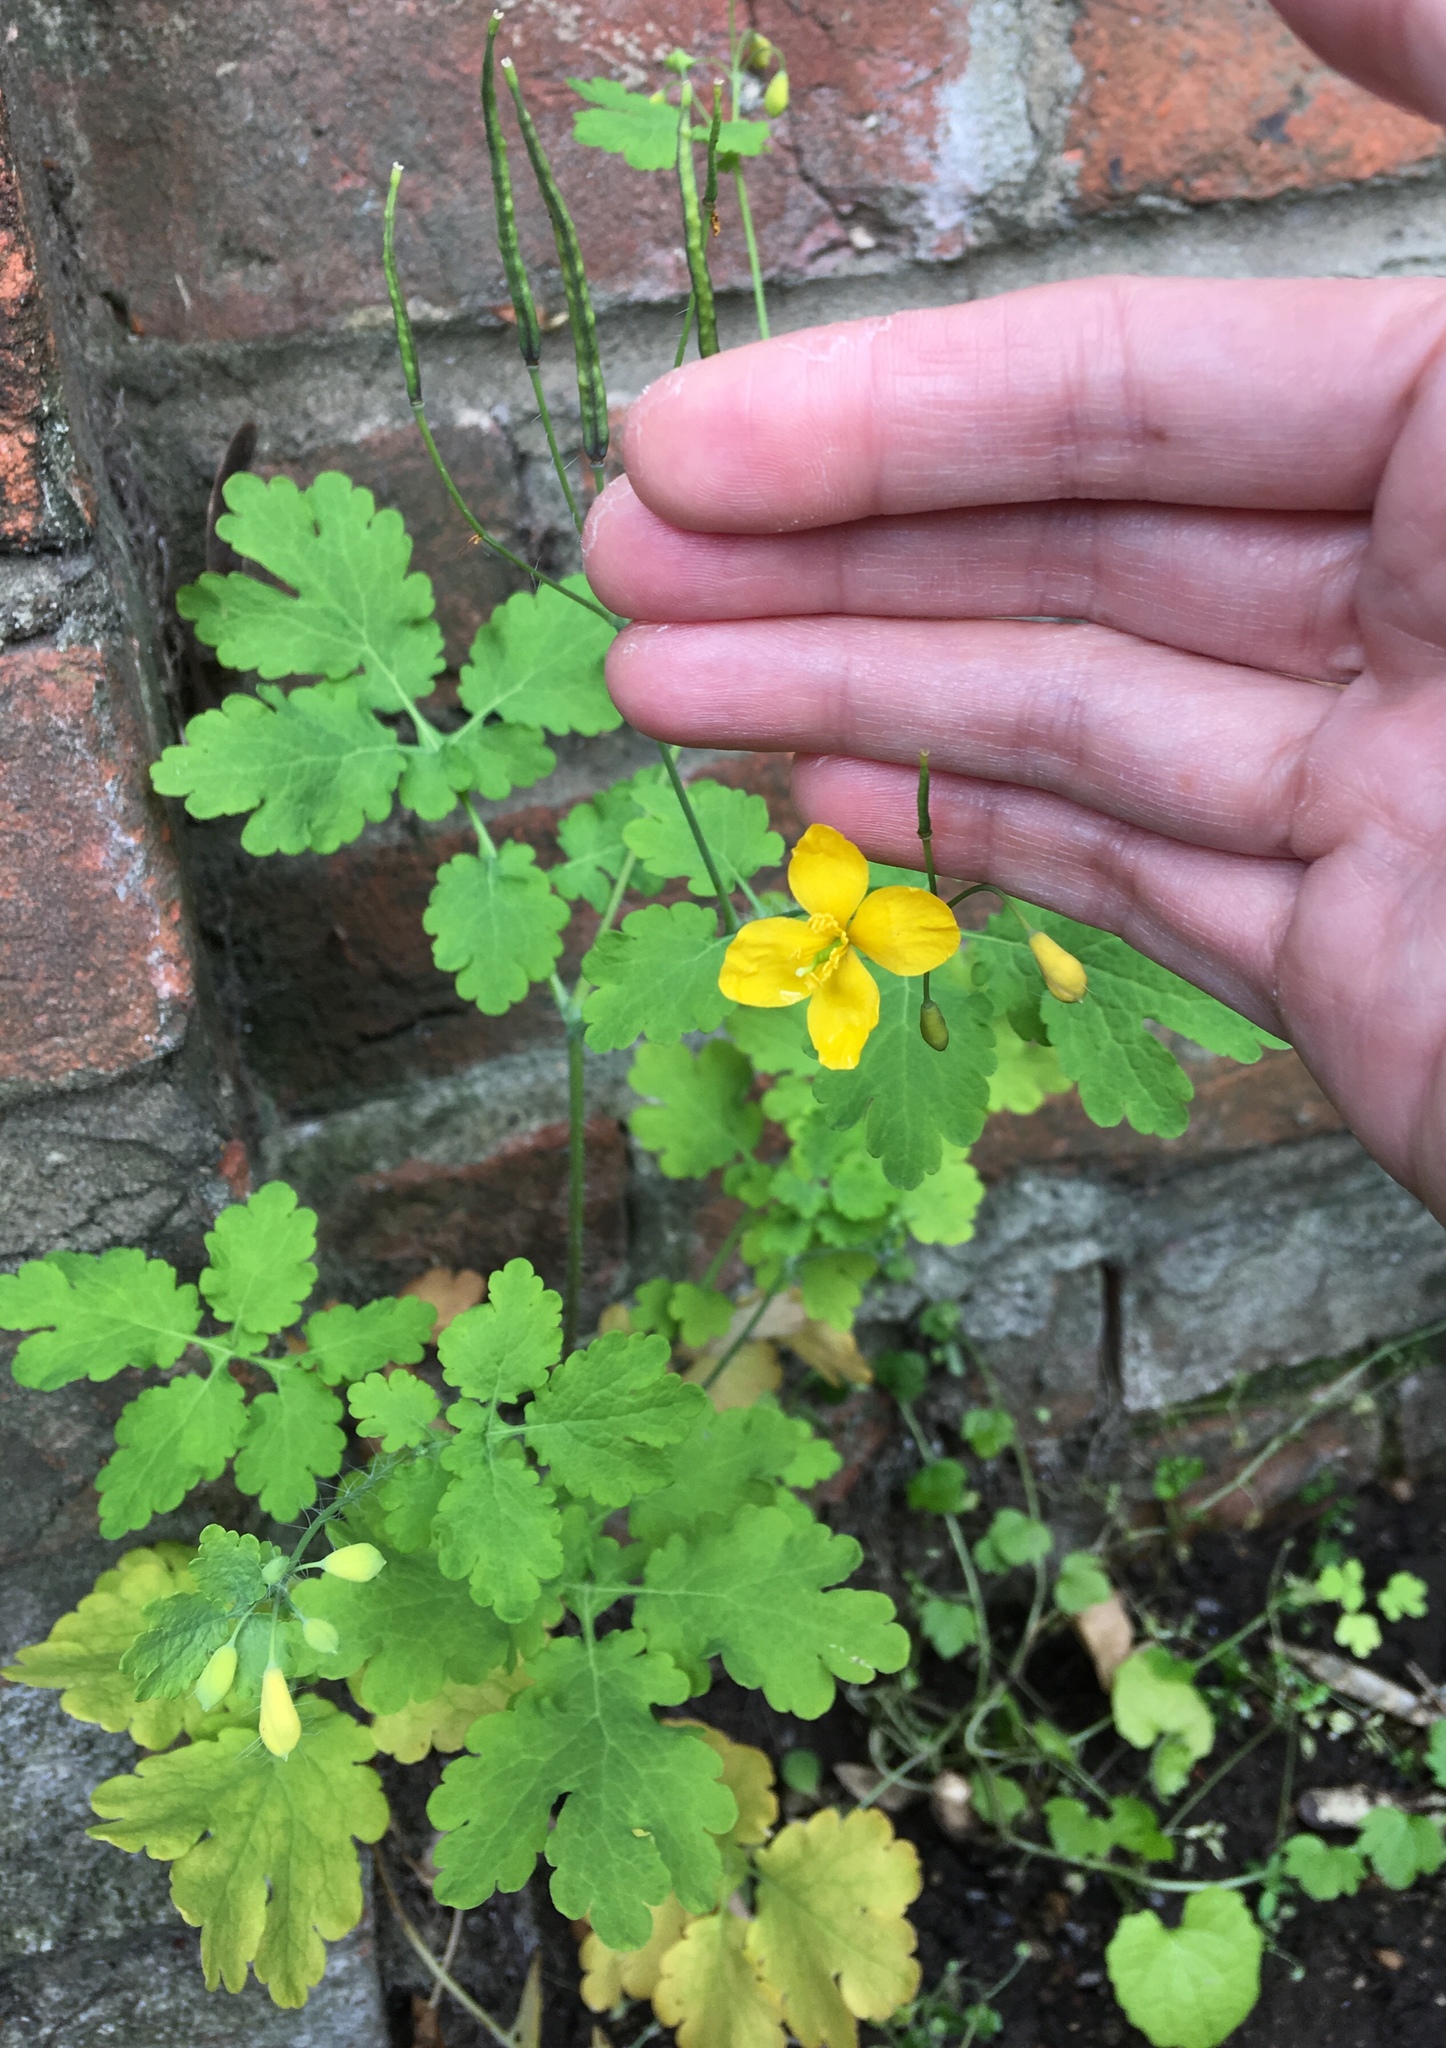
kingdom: Plantae
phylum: Tracheophyta
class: Magnoliopsida
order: Ranunculales
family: Papaveraceae
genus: Chelidonium
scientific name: Chelidonium majus
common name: Greater celandine
